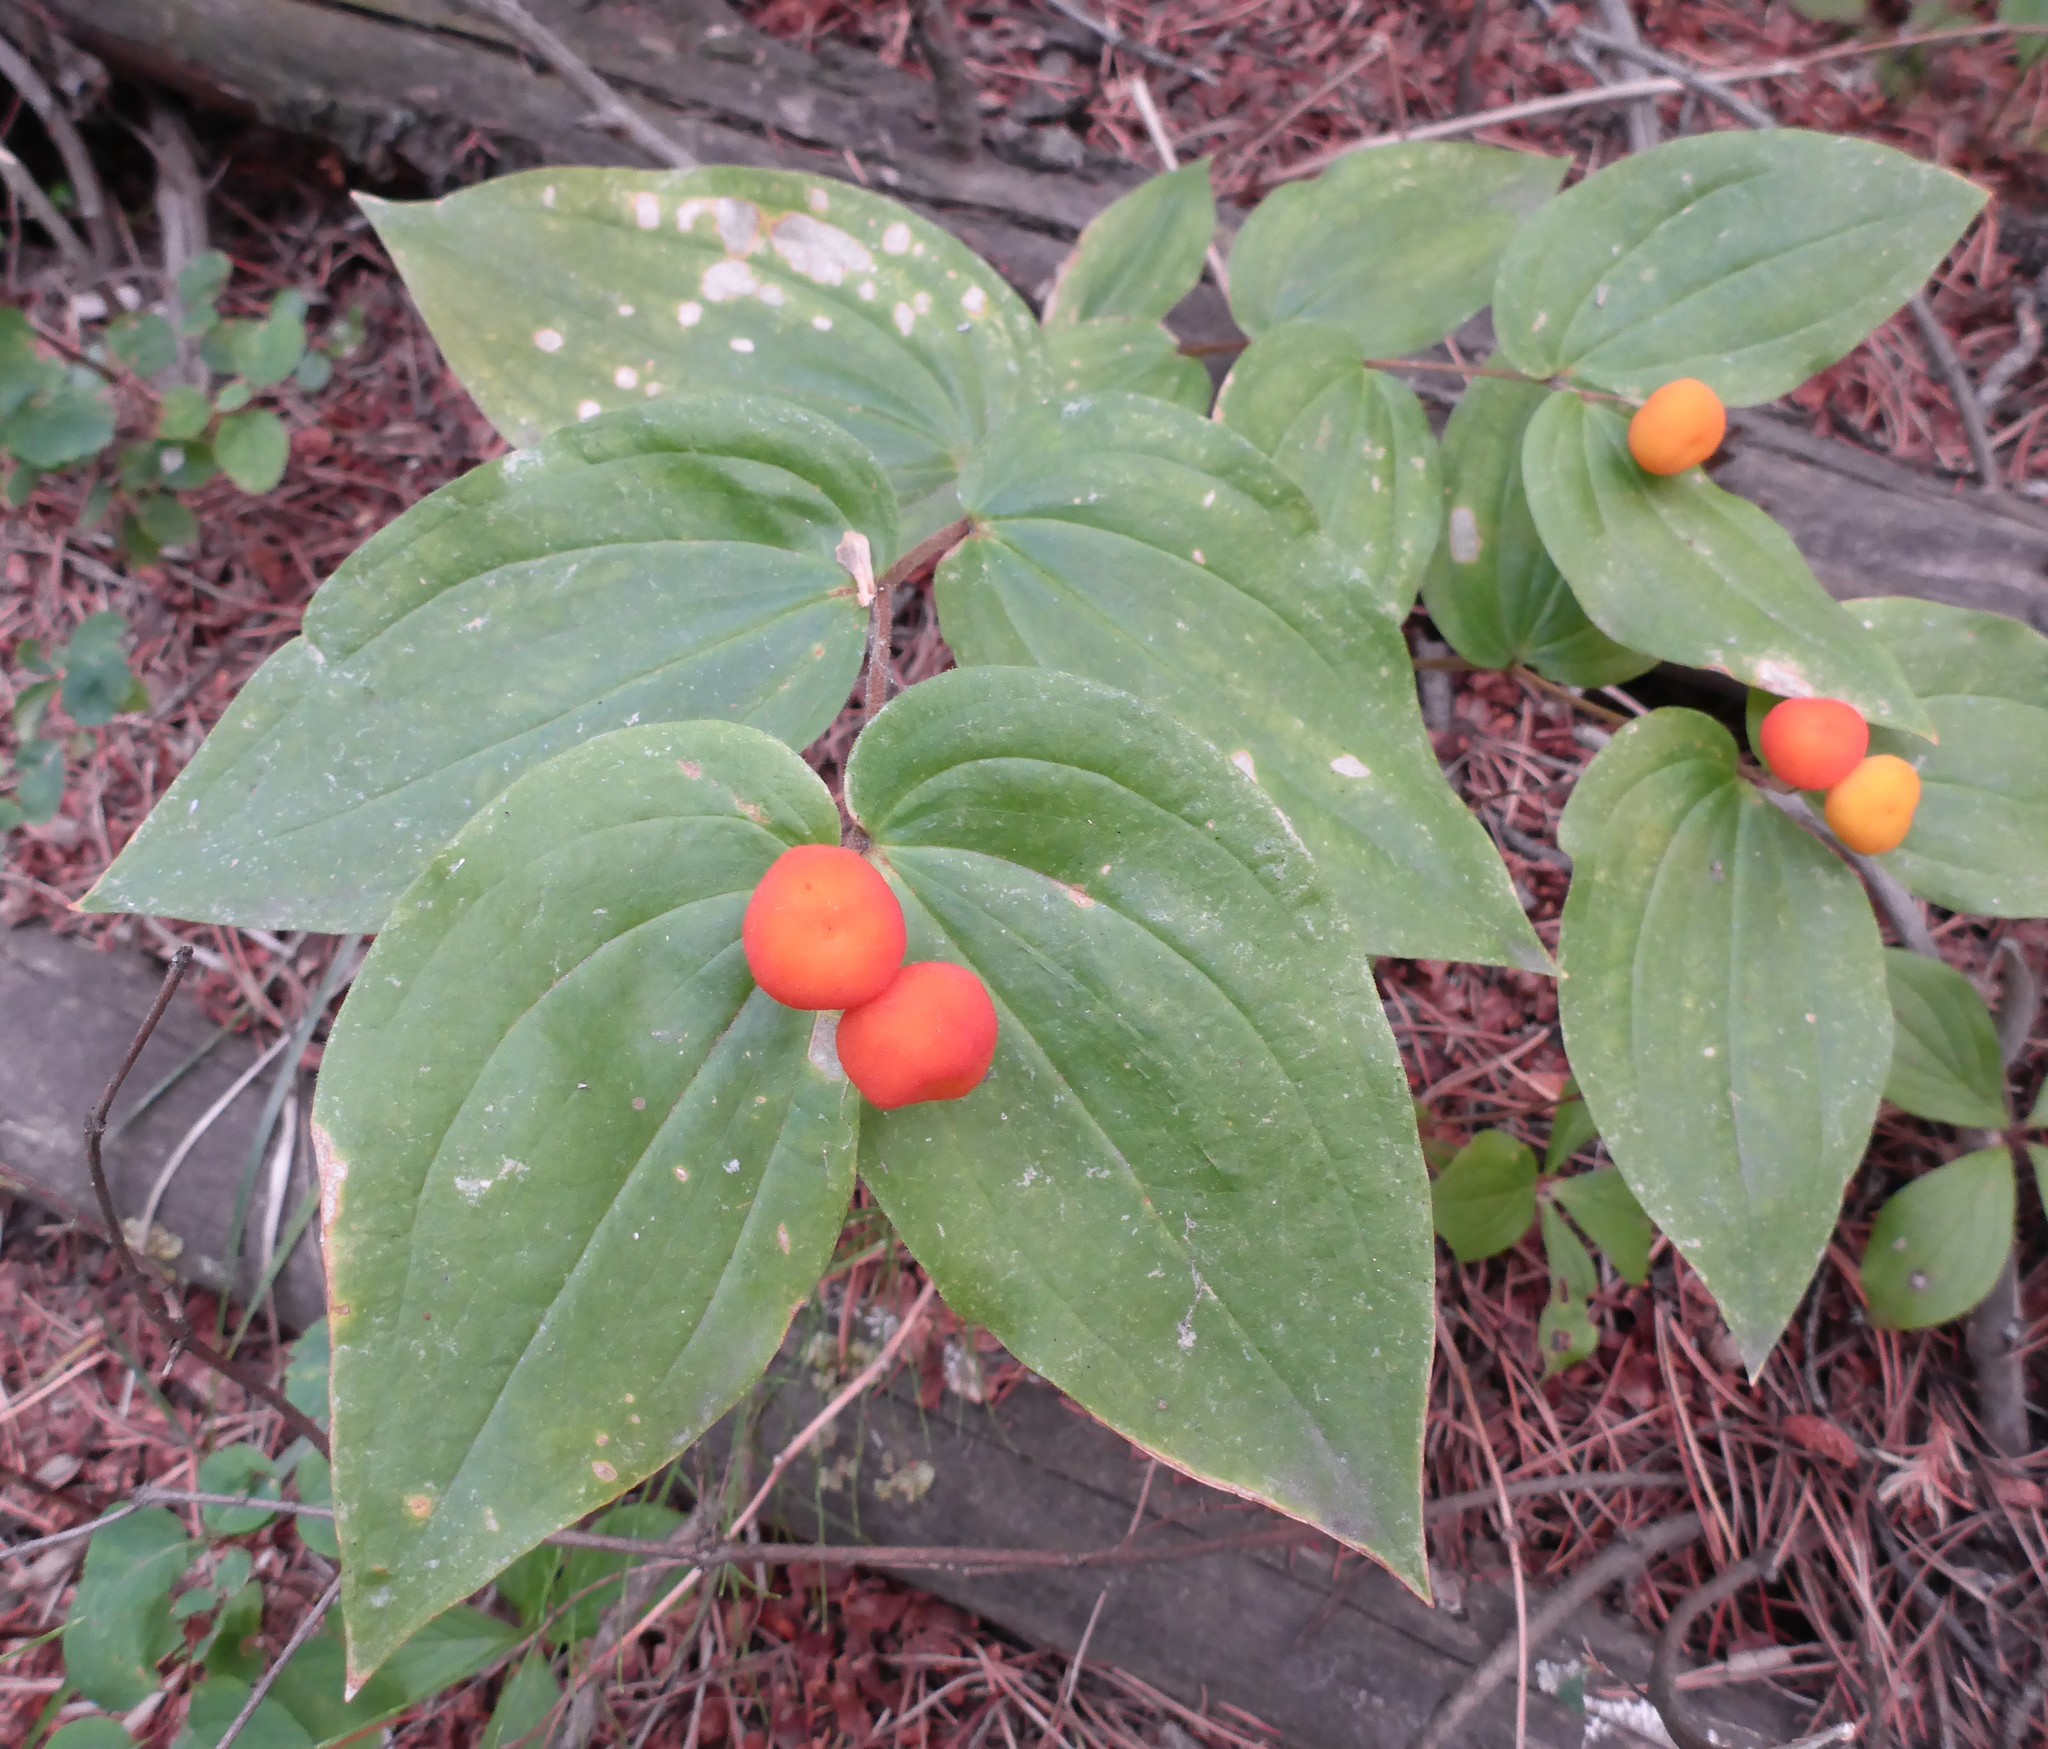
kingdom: Plantae
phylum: Tracheophyta
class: Liliopsida
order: Liliales
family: Liliaceae
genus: Prosartes
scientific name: Prosartes trachycarpa
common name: Rough-fruit fairy-bells
